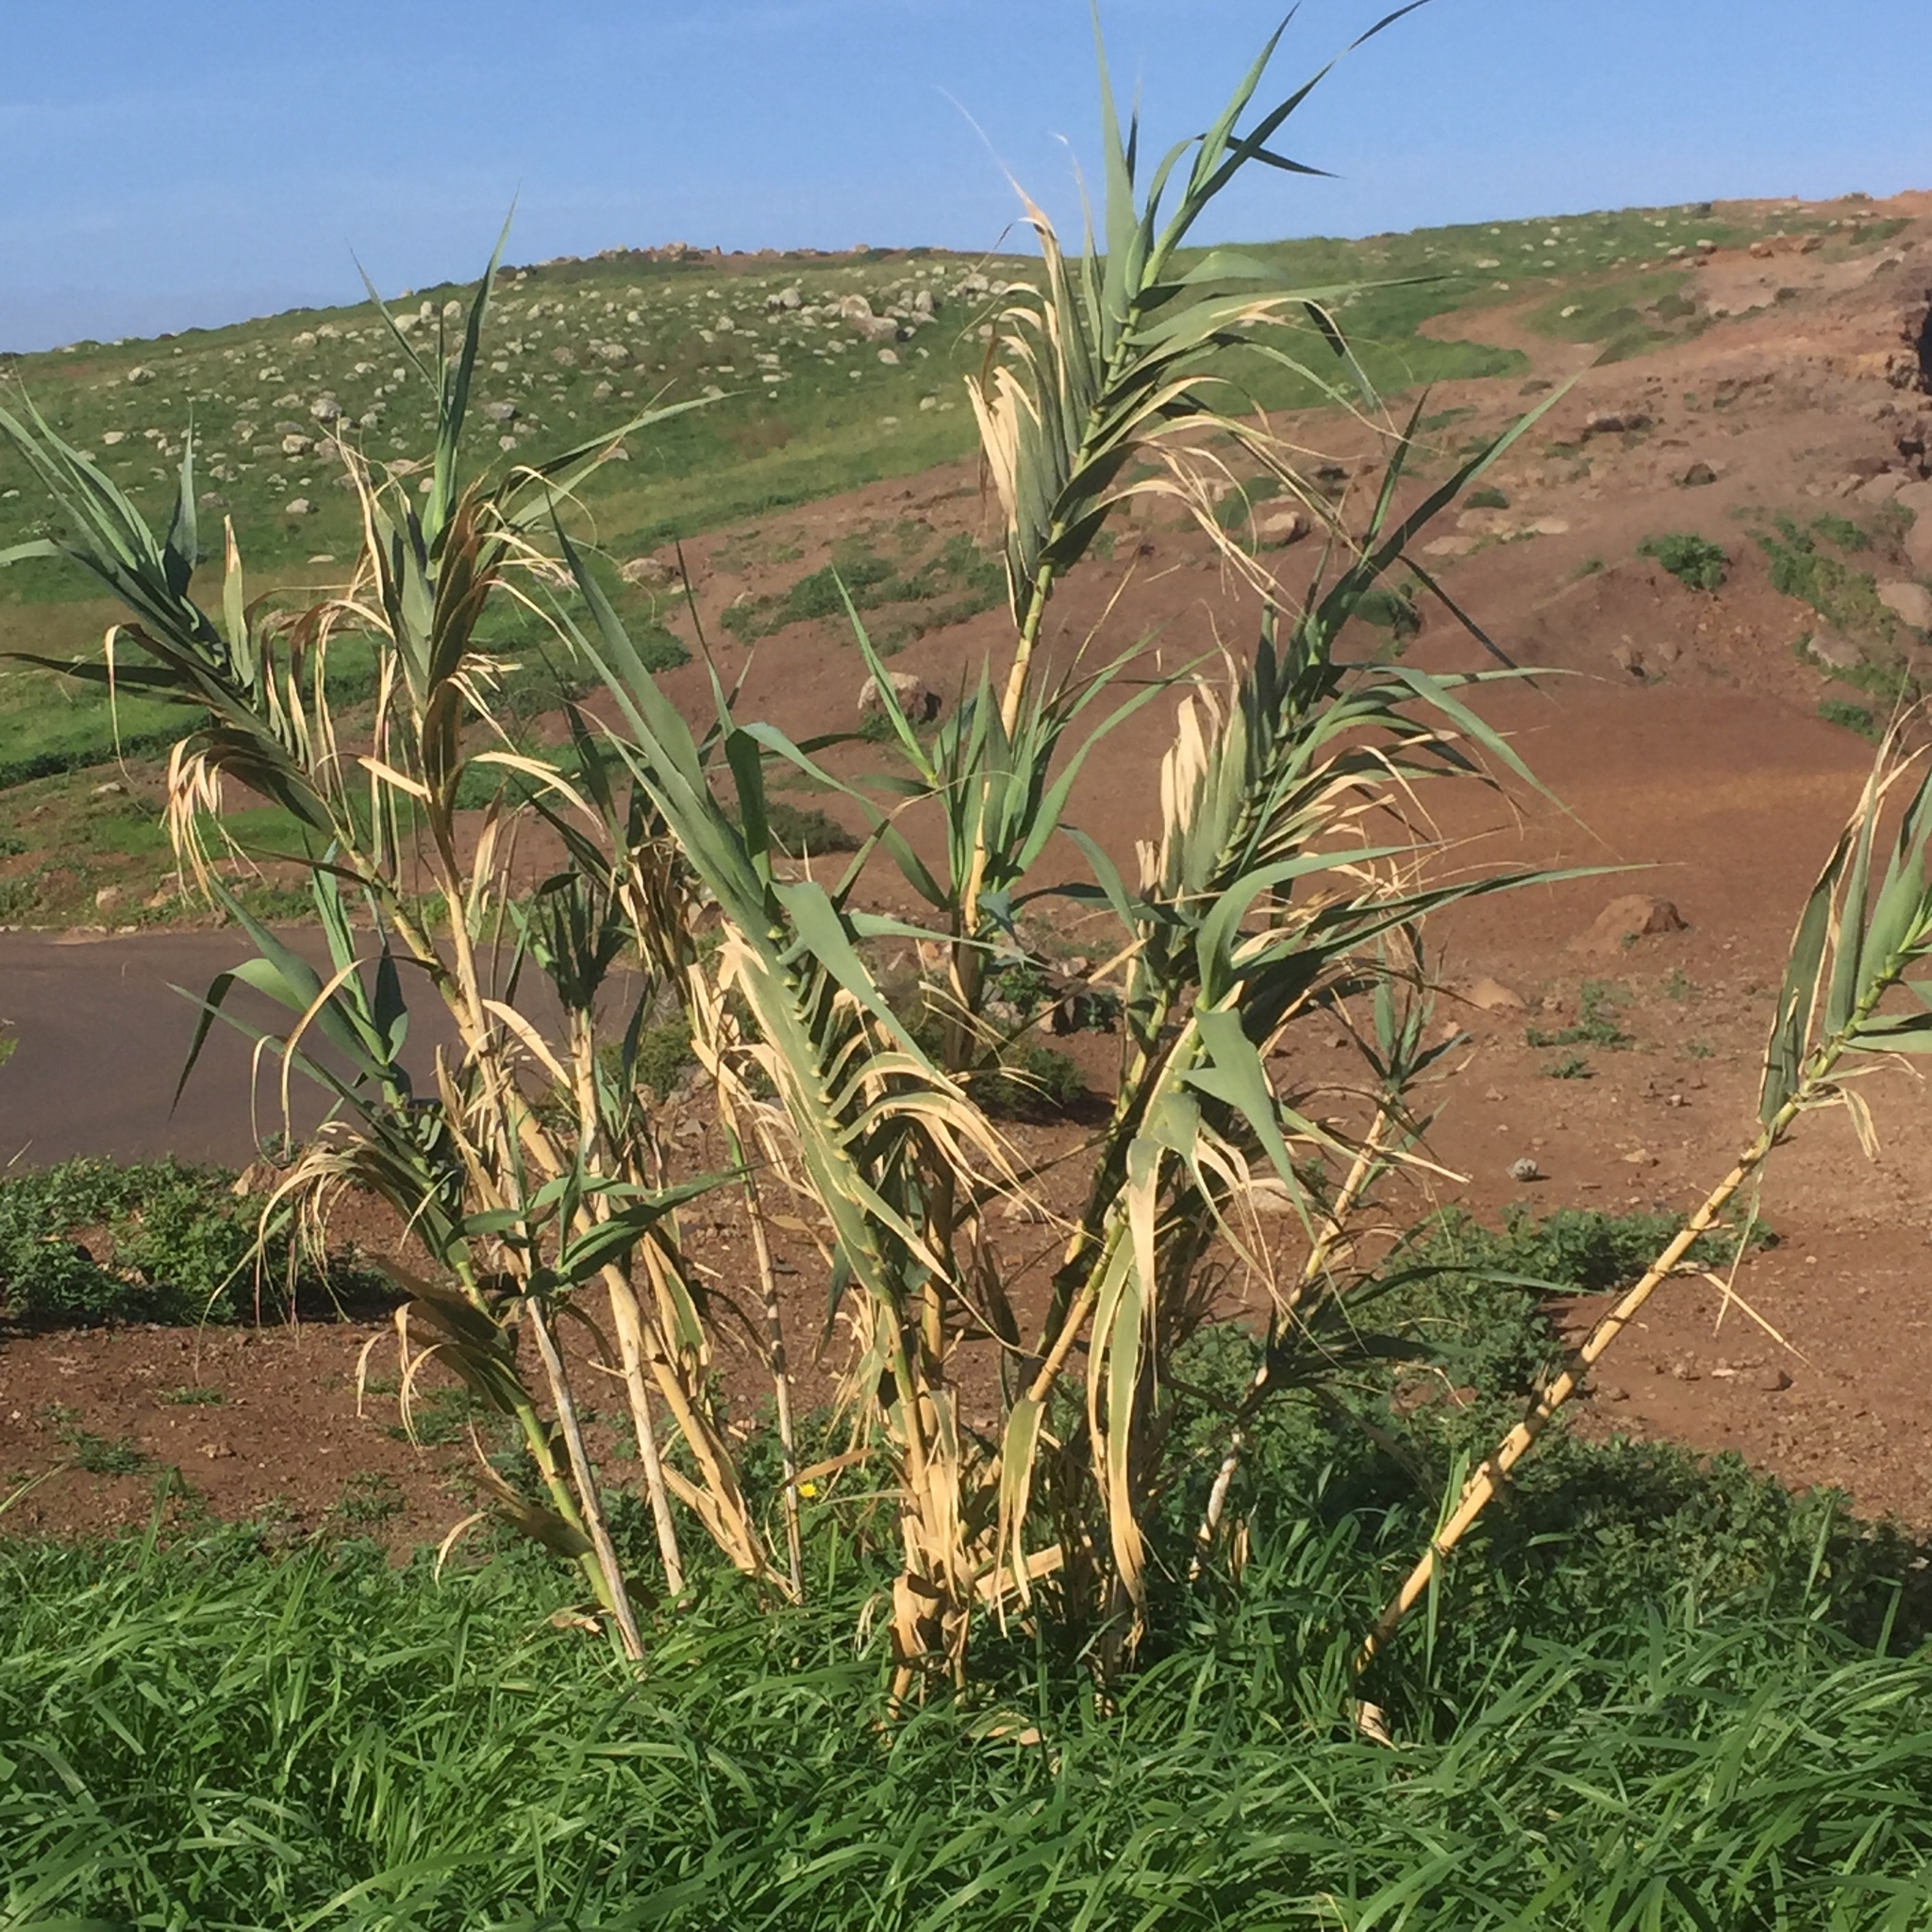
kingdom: Plantae
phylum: Tracheophyta
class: Liliopsida
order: Poales
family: Poaceae
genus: Arundo
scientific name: Arundo donax
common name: Giant reed
